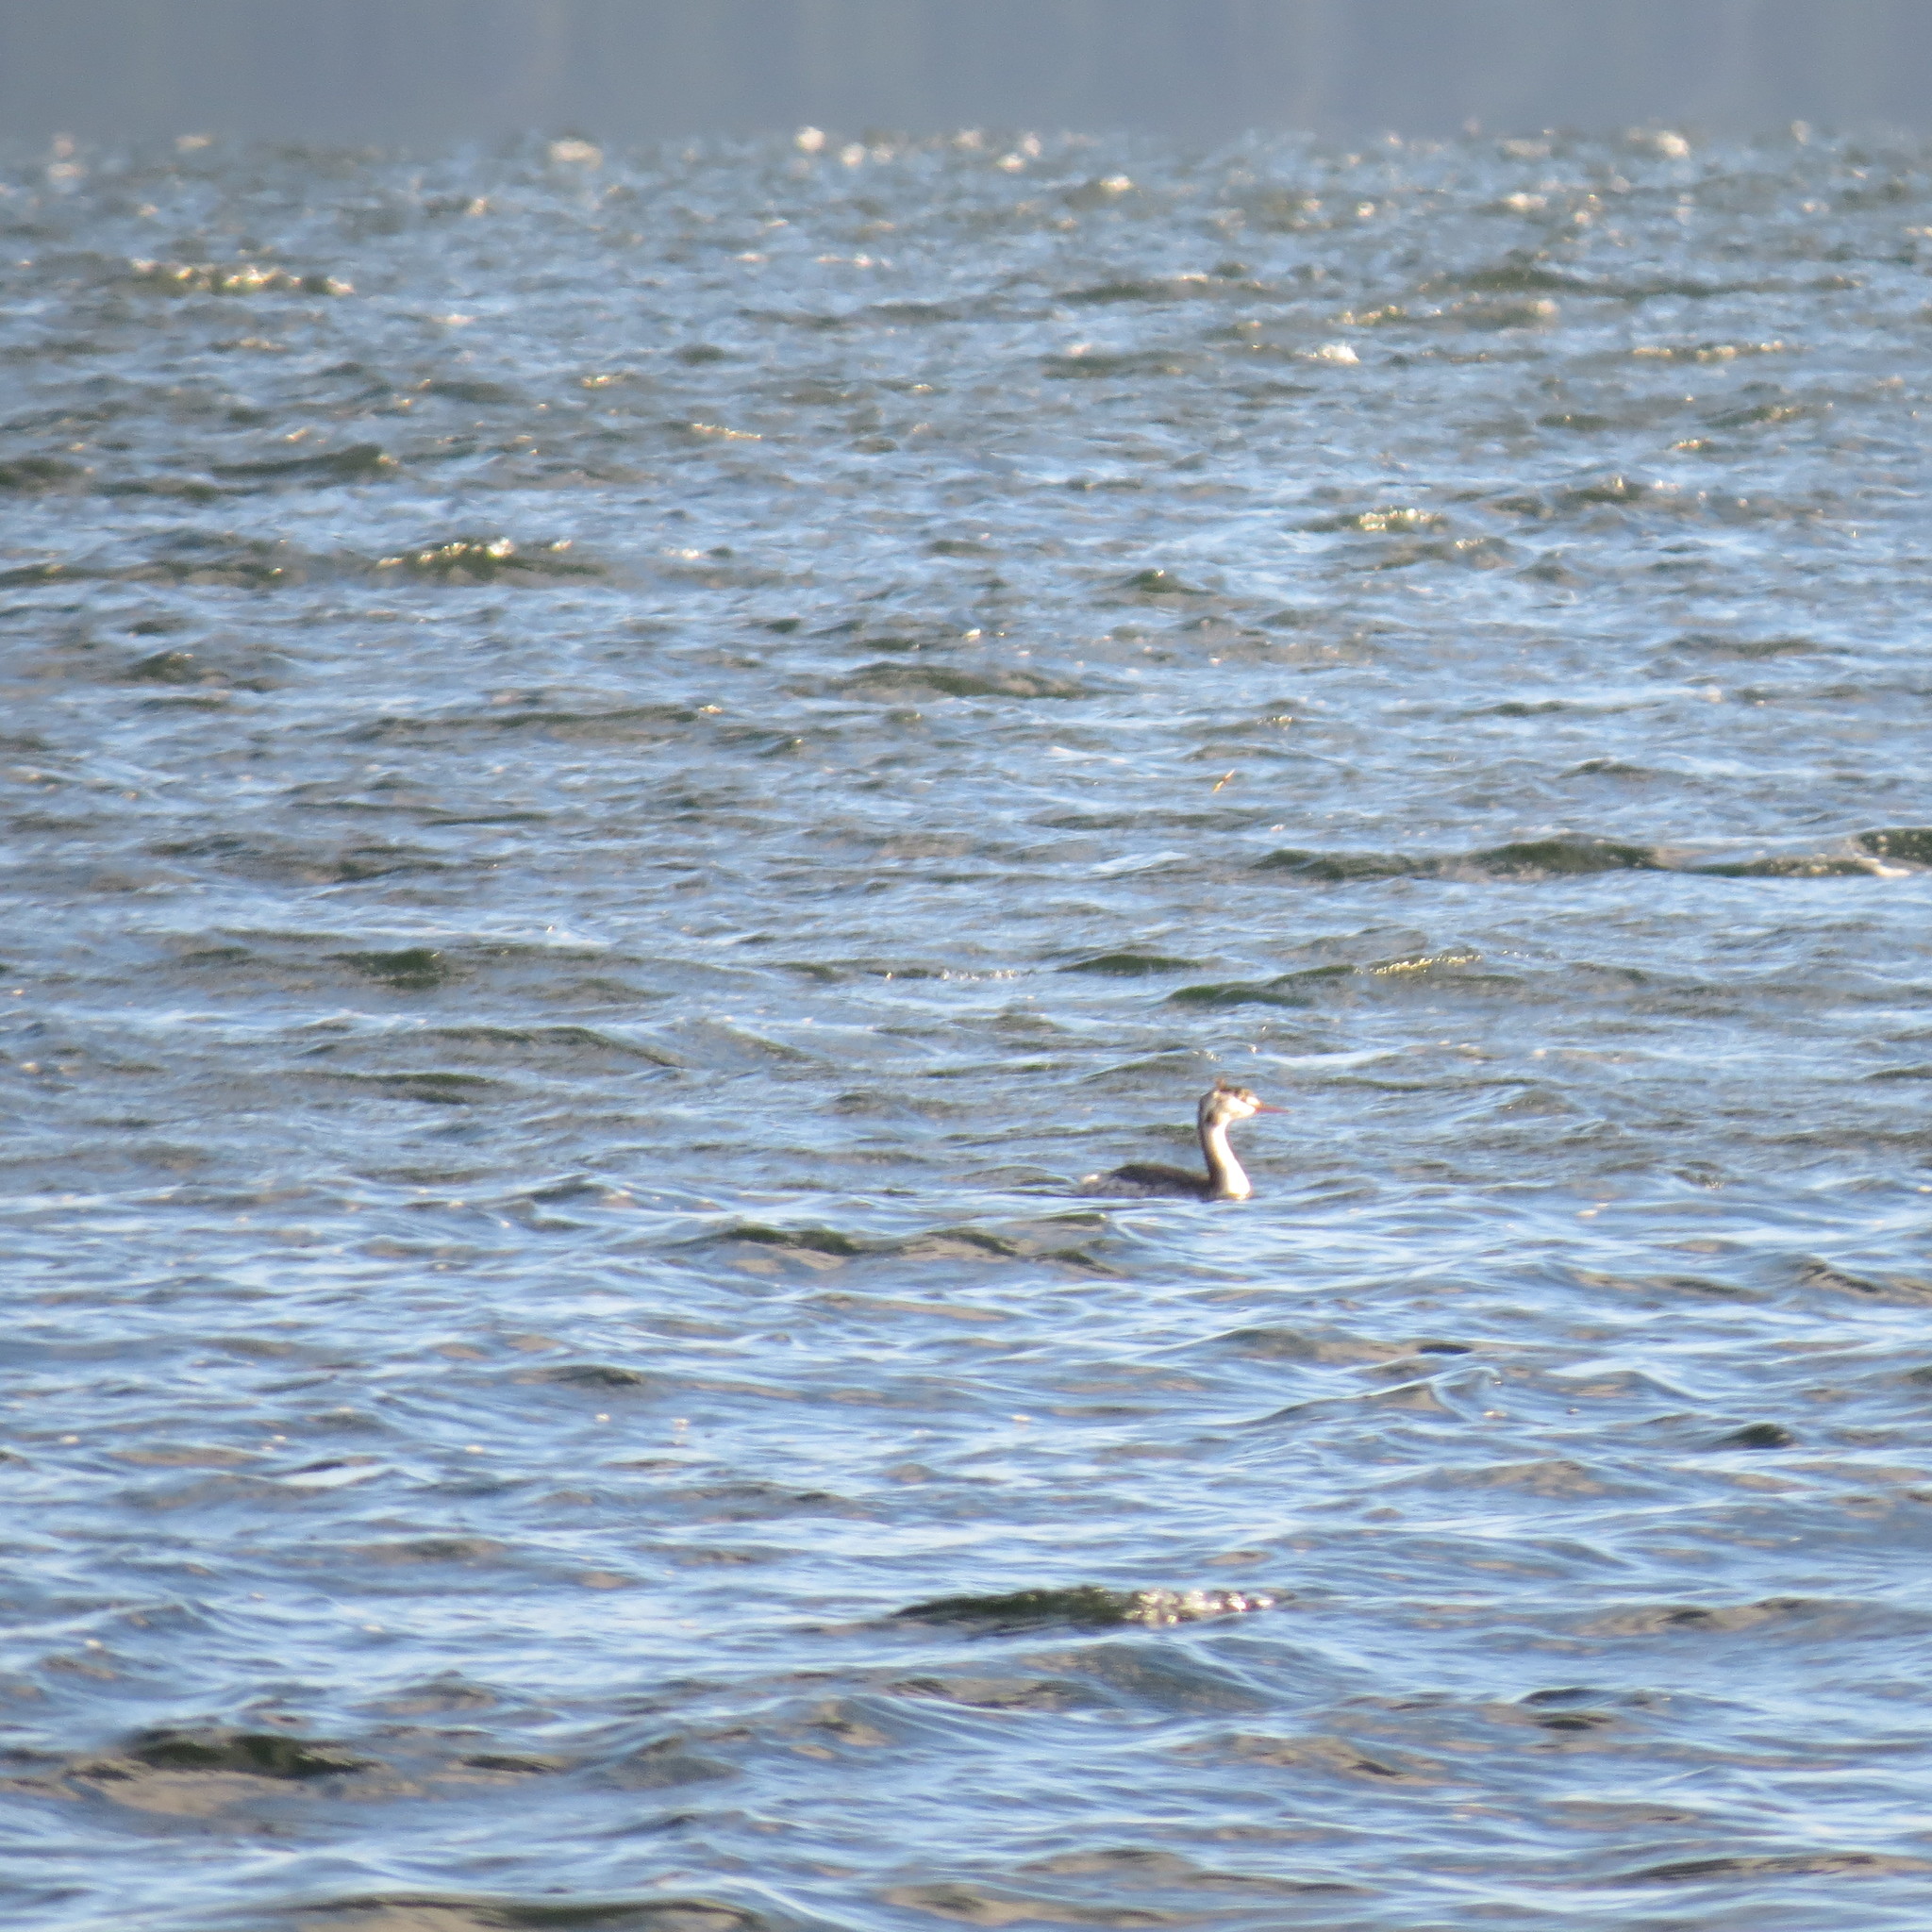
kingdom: Animalia
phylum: Chordata
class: Aves
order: Podicipediformes
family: Podicipedidae
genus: Podiceps
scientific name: Podiceps cristatus
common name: Great crested grebe
